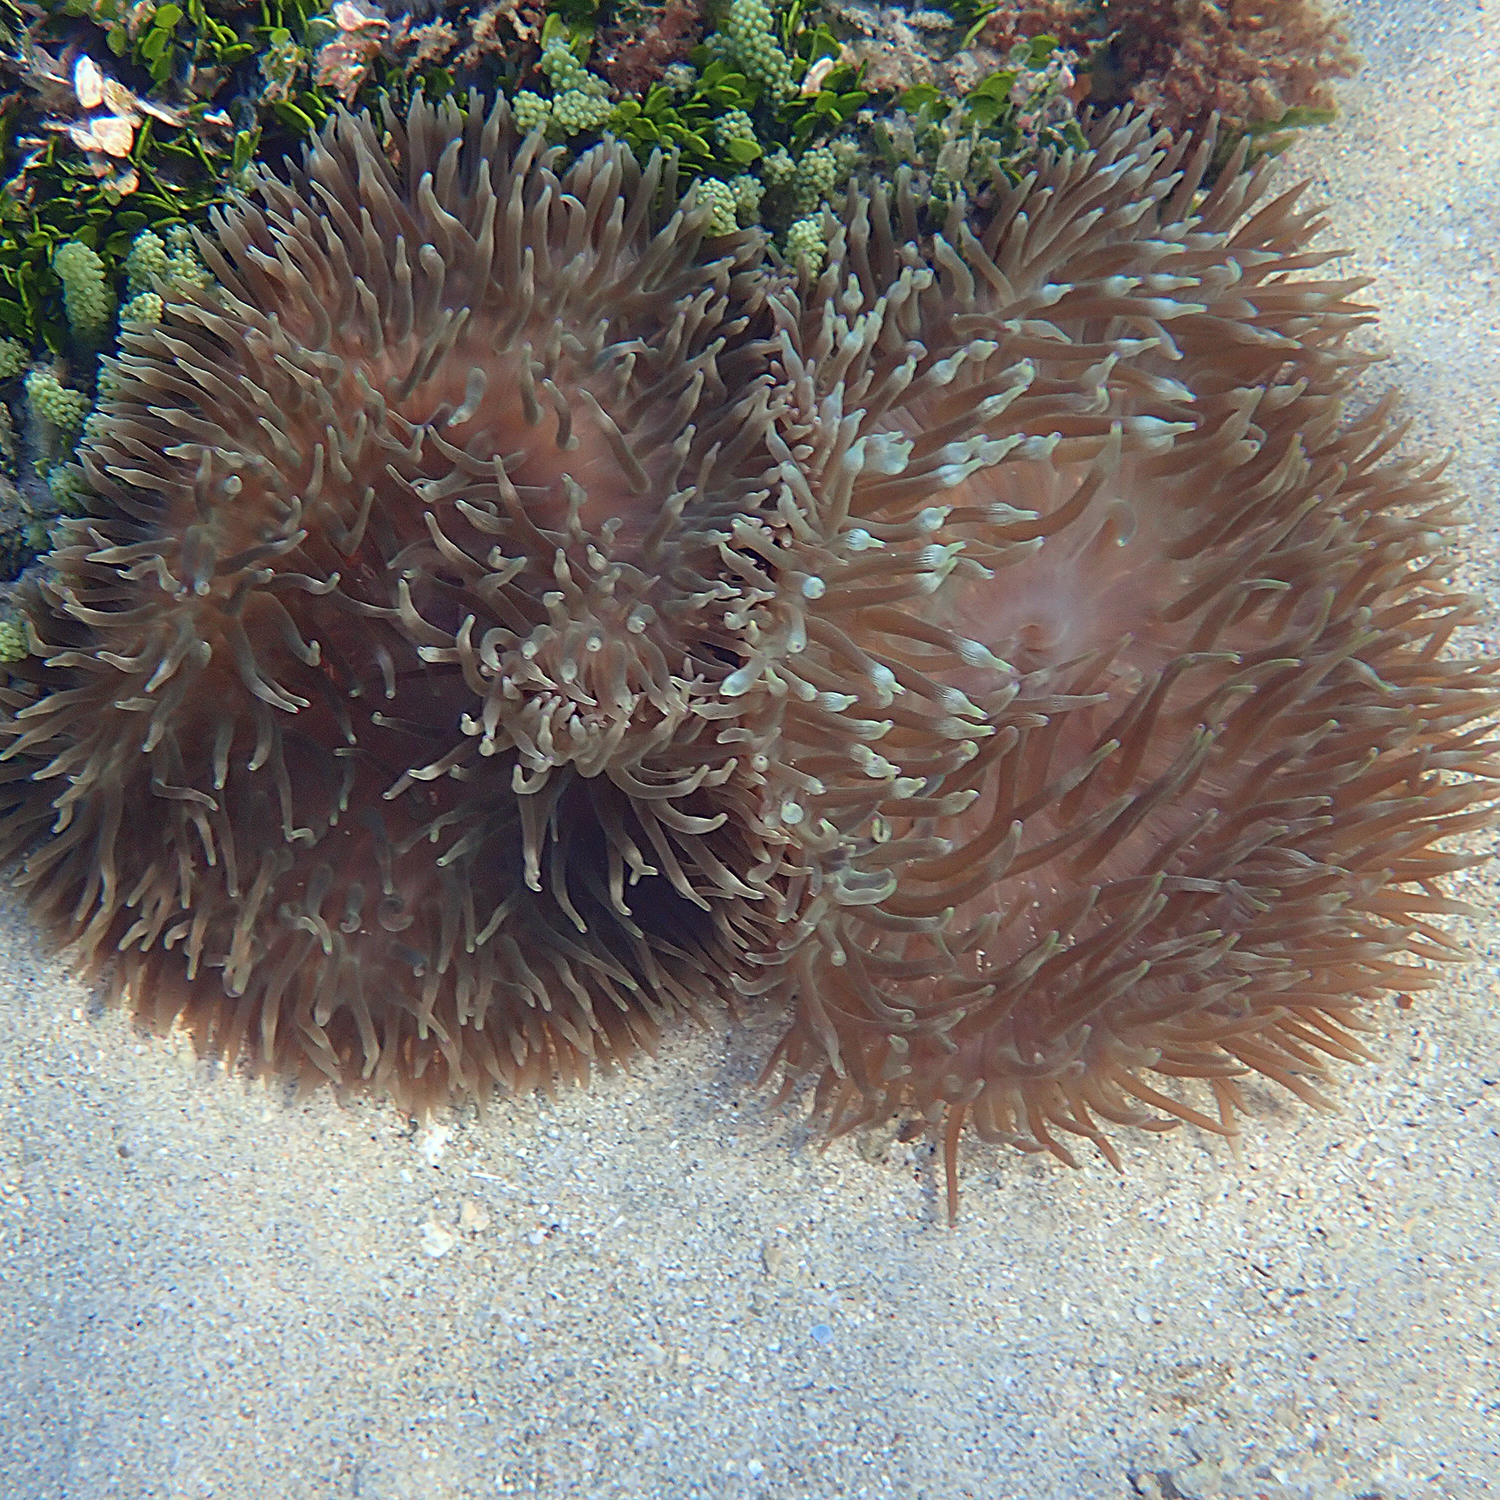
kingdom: Animalia
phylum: Cnidaria
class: Anthozoa
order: Actiniaria
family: Actiniidae
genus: Entacmaea
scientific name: Entacmaea quadricolor
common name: Bulb tentacle sea anemone
